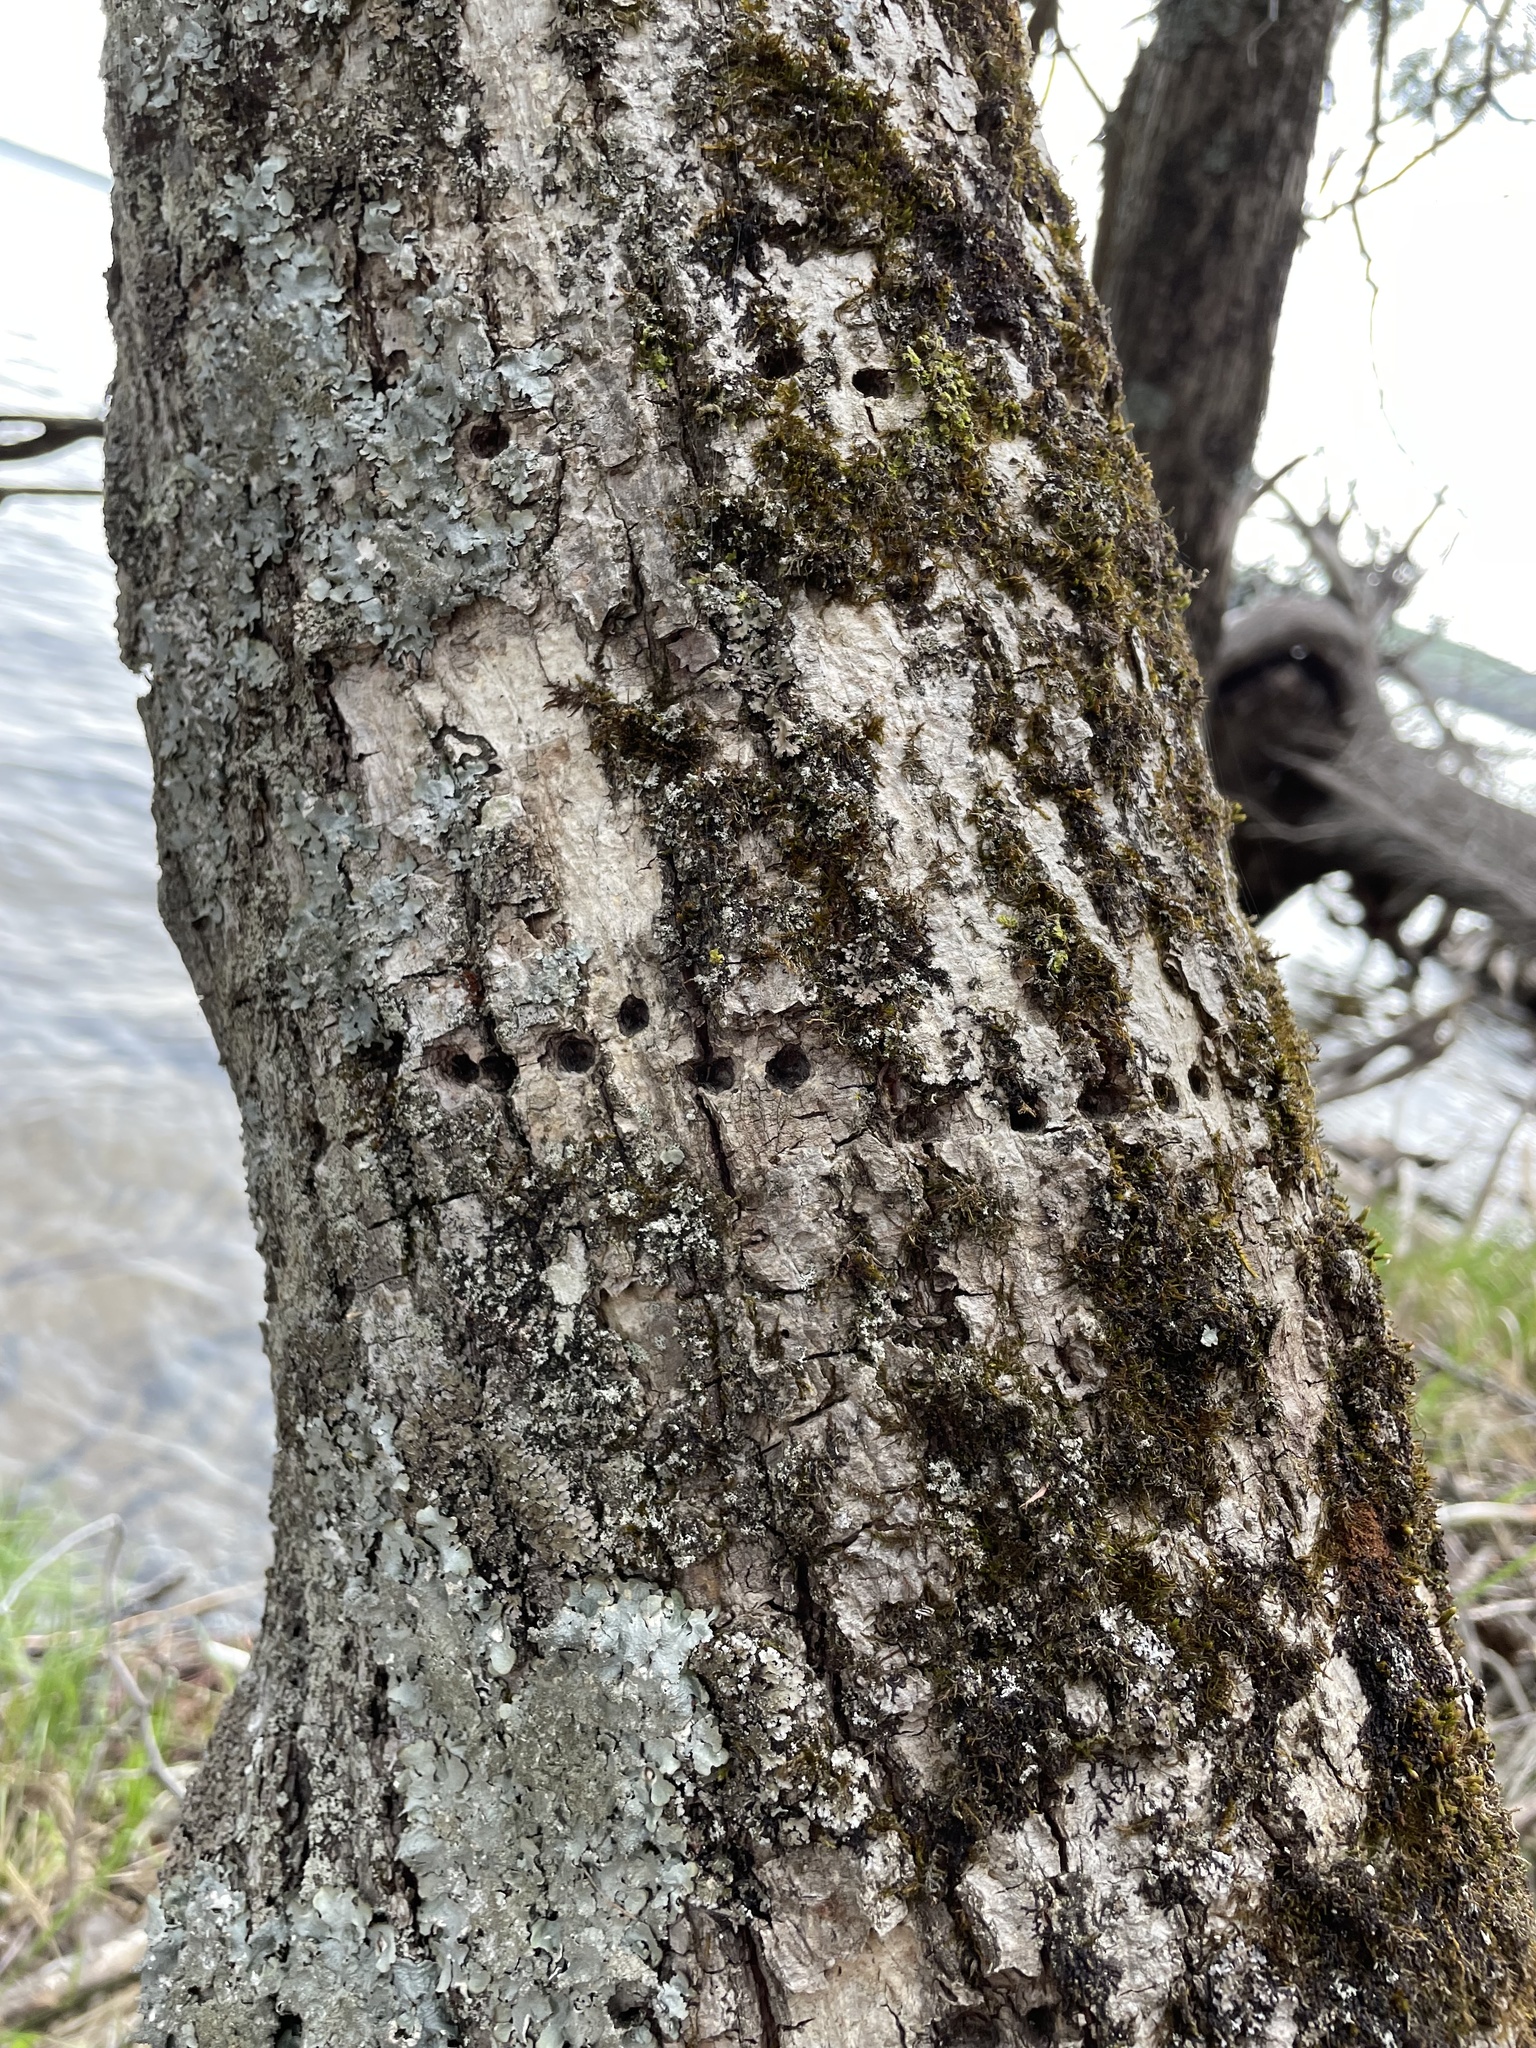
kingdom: Animalia
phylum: Chordata
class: Aves
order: Piciformes
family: Picidae
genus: Sphyrapicus
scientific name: Sphyrapicus varius
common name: Yellow-bellied sapsucker
